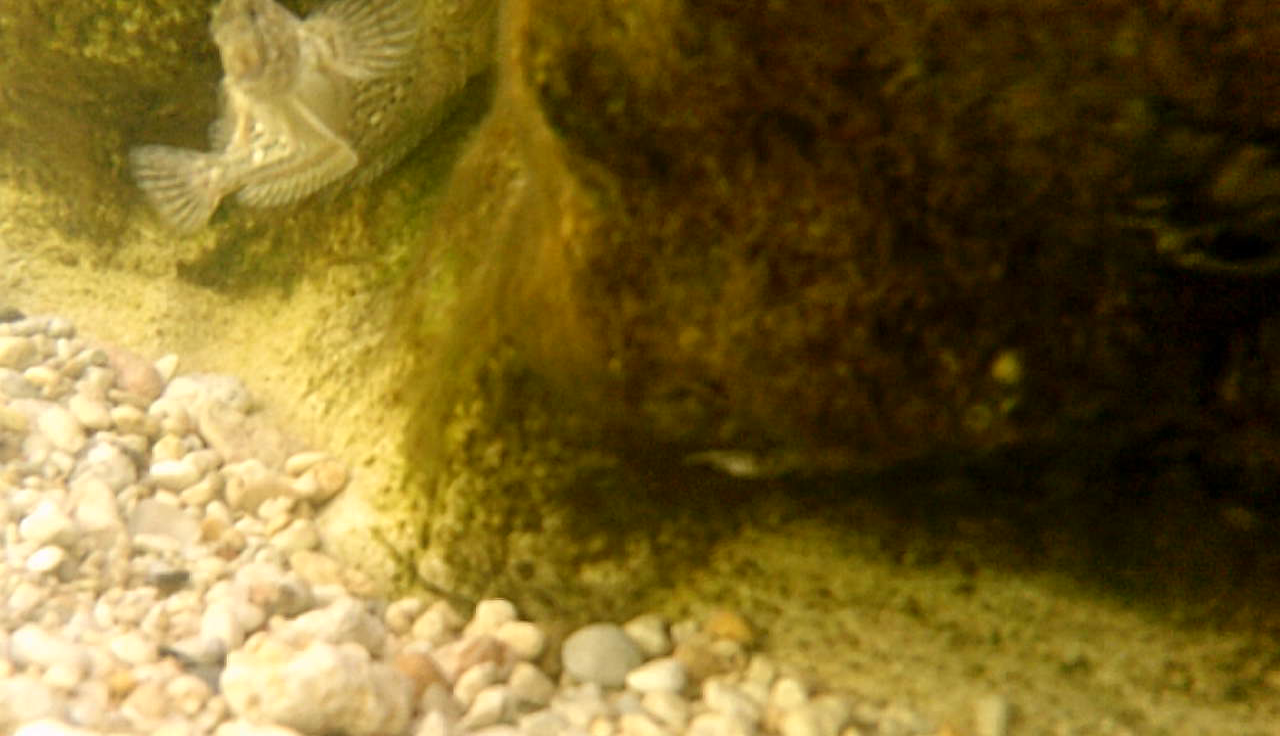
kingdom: Animalia
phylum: Chordata
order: Perciformes
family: Blenniidae
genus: Parablennius
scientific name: Parablennius sanguinolentus
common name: Black sea blenny
